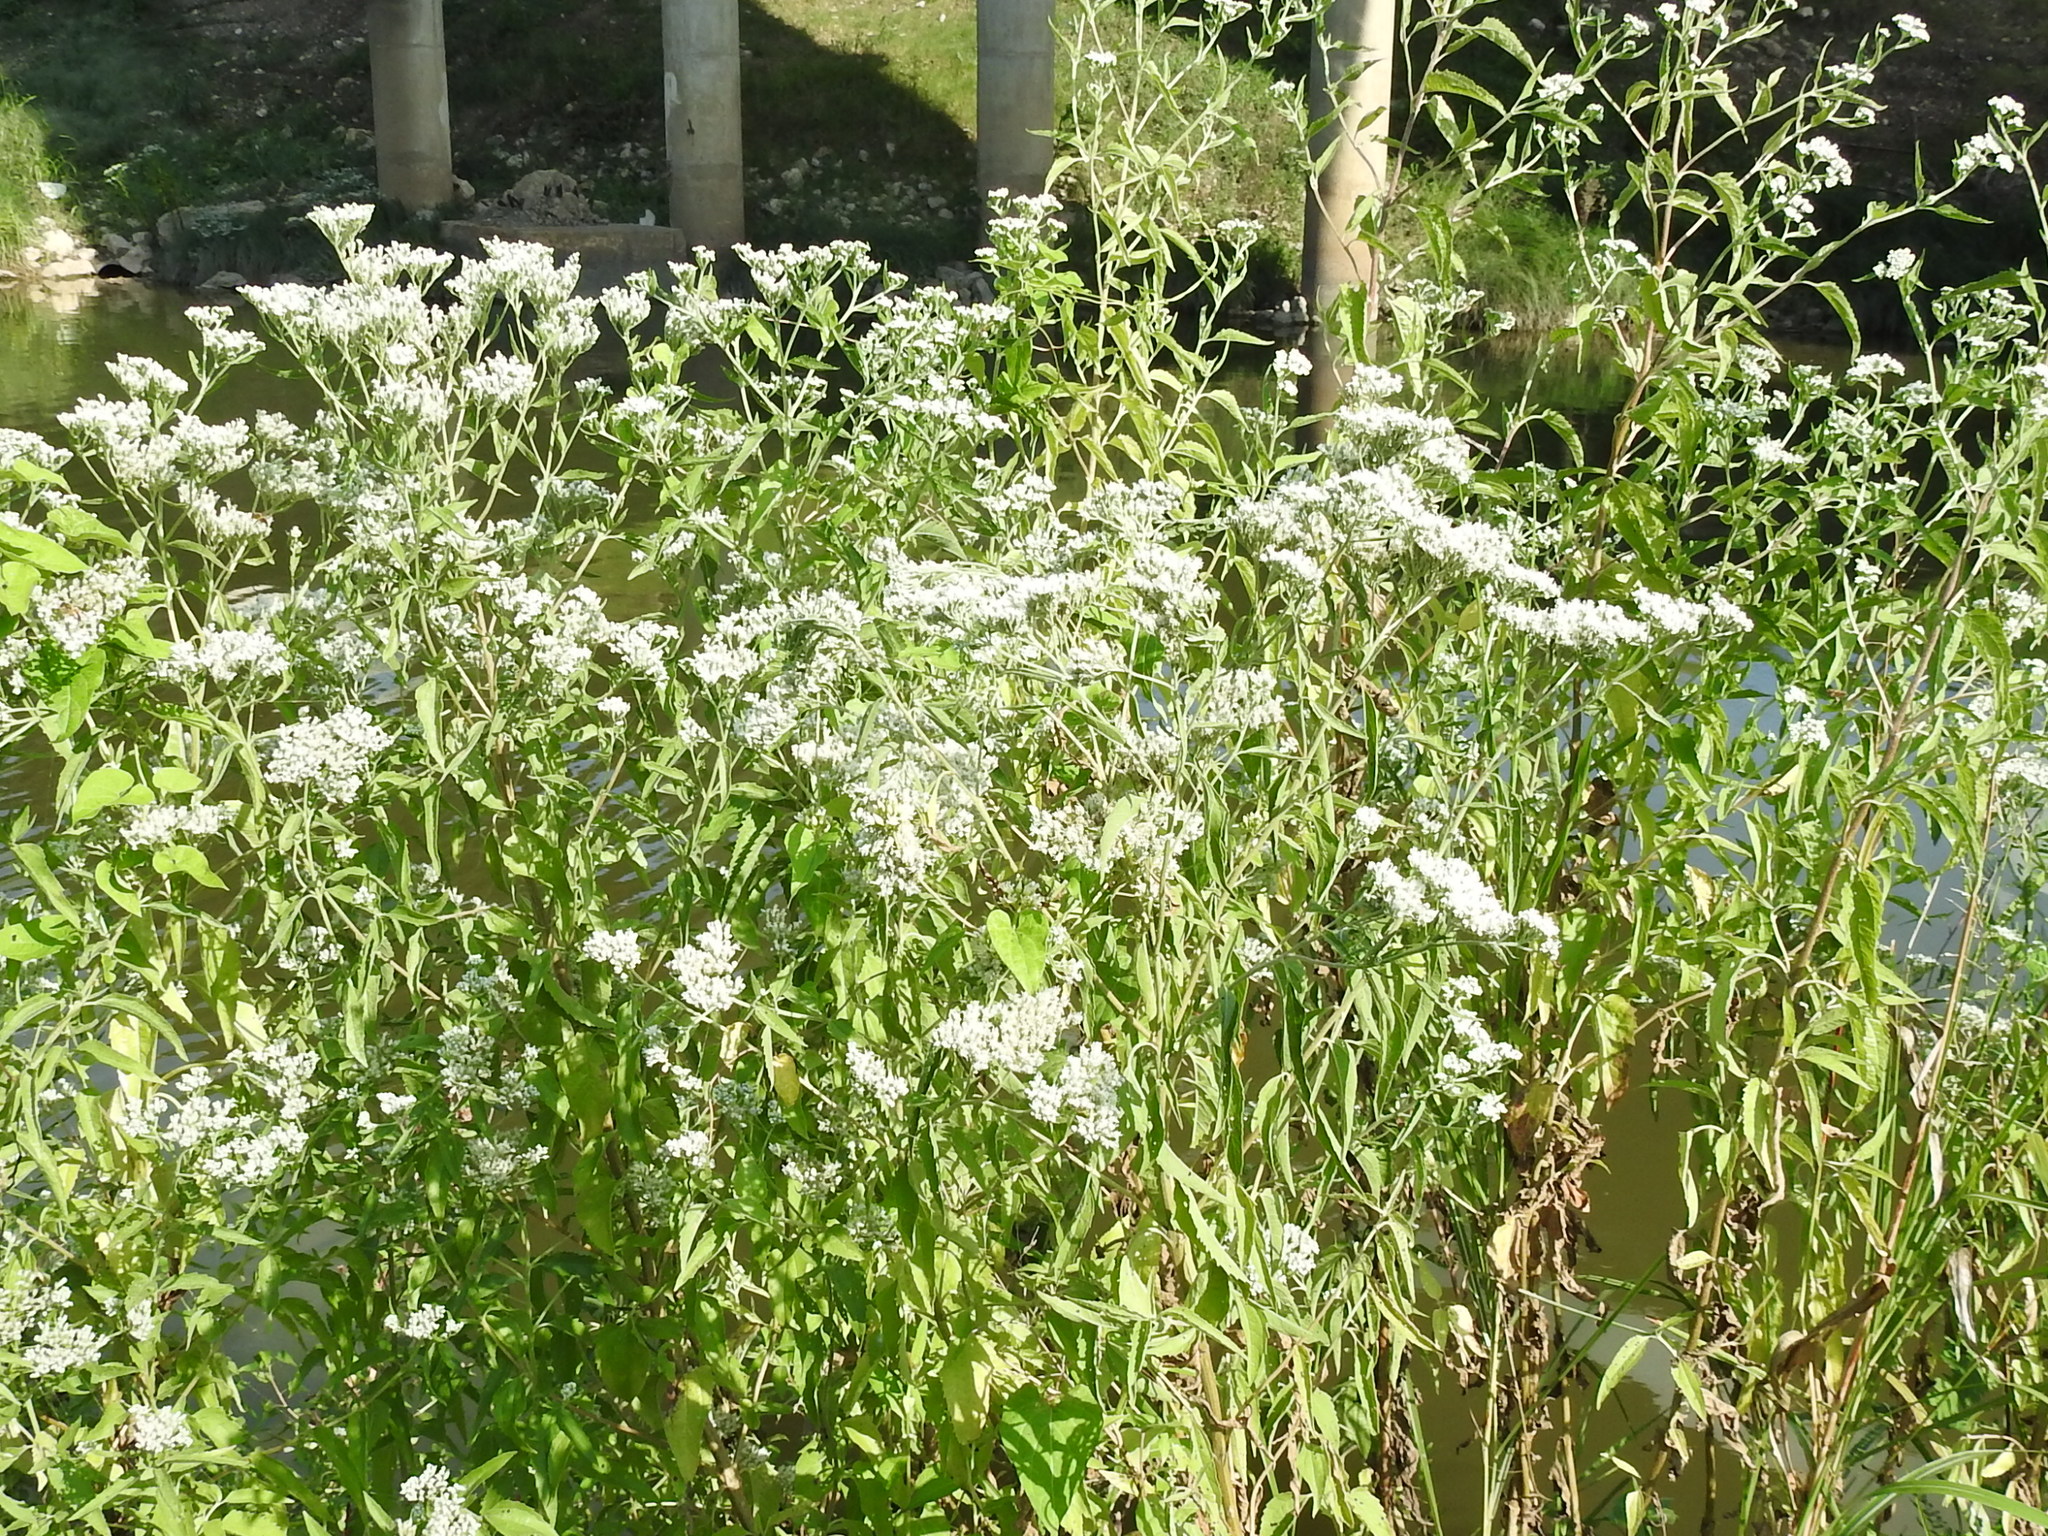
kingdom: Plantae
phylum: Tracheophyta
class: Magnoliopsida
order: Asterales
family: Asteraceae
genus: Eupatorium
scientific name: Eupatorium serotinum
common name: Late boneset
